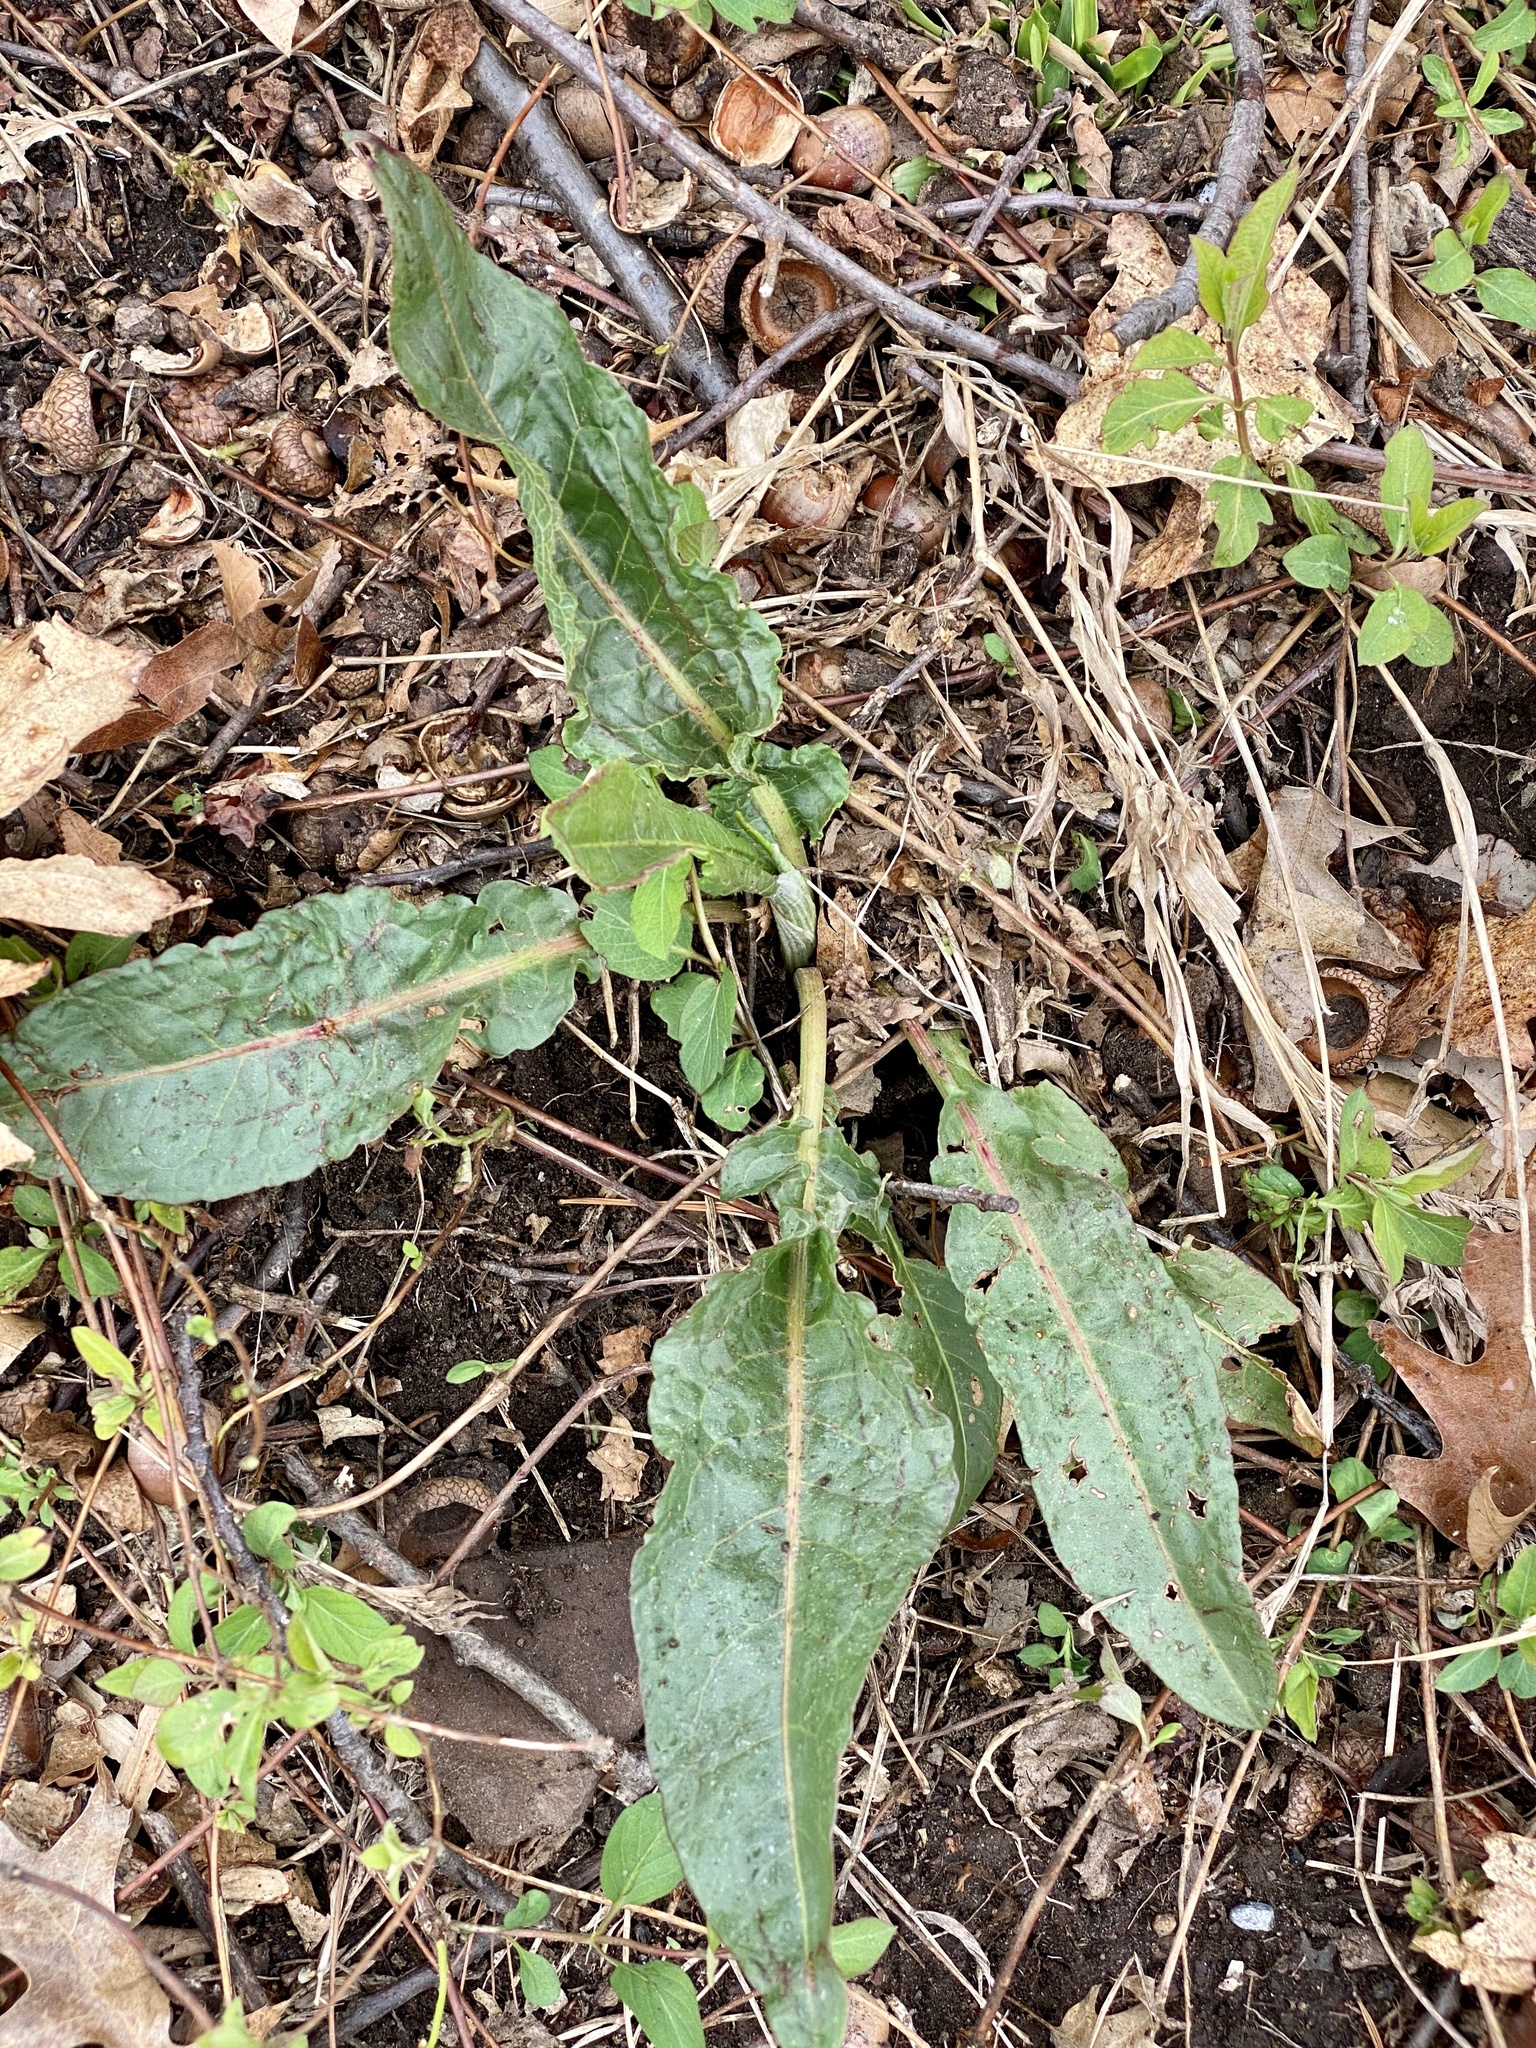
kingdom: Plantae
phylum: Tracheophyta
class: Magnoliopsida
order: Caryophyllales
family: Polygonaceae
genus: Rumex
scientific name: Rumex crispus
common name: Curled dock
